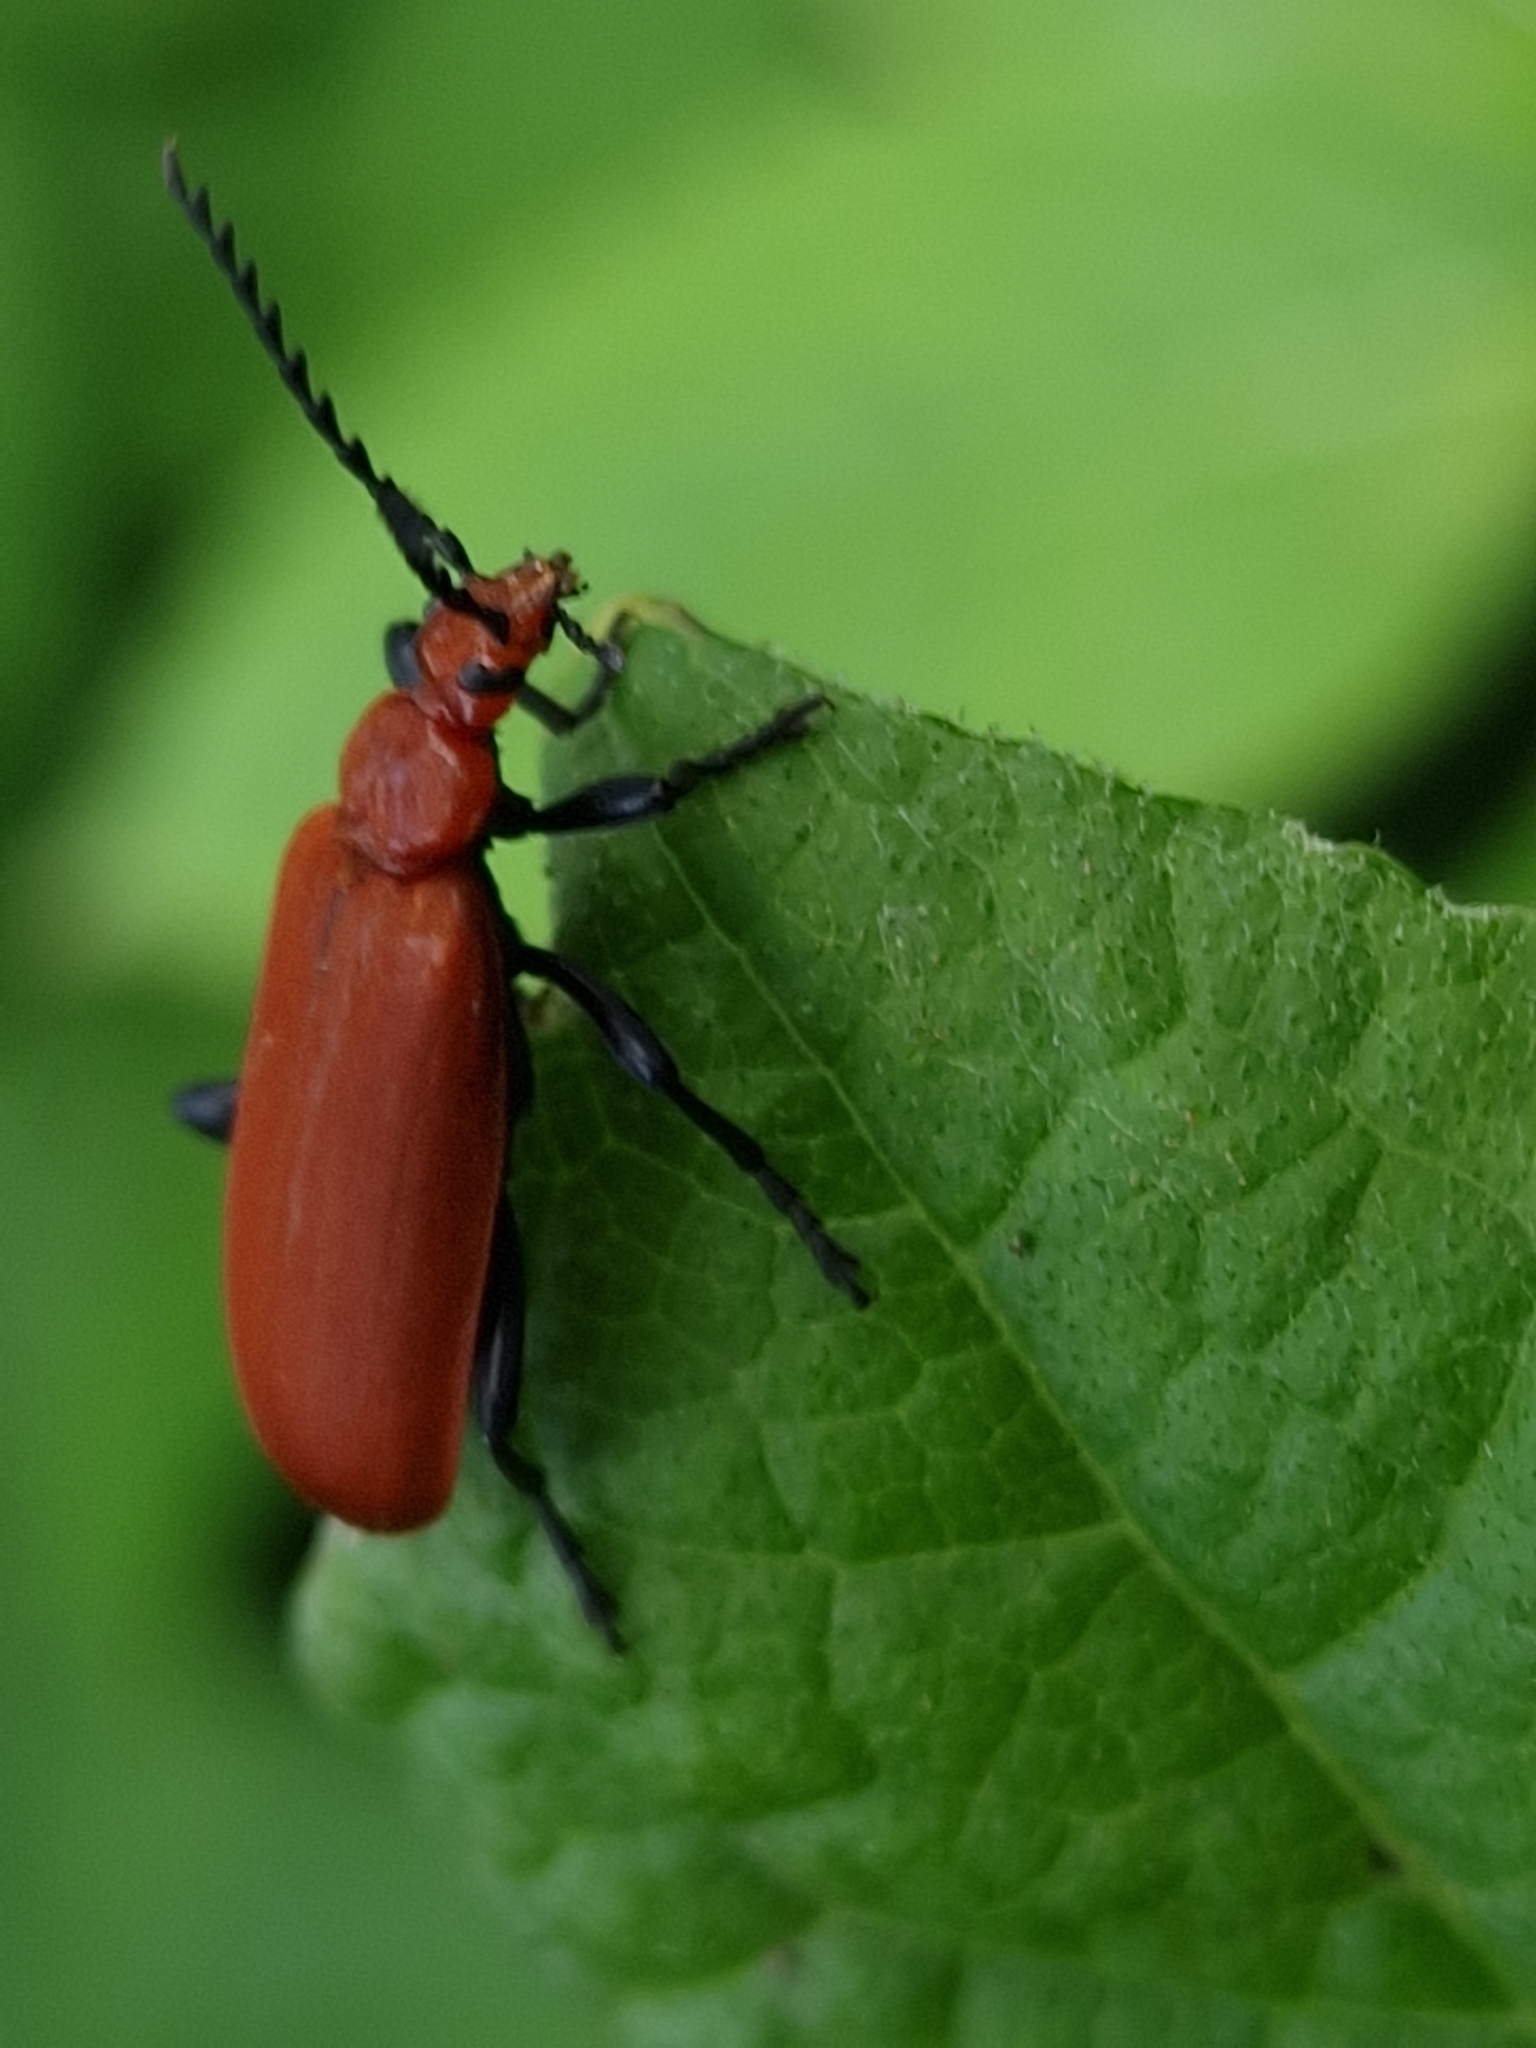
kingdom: Animalia
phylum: Arthropoda
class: Insecta
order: Coleoptera
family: Pyrochroidae
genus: Pyrochroa
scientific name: Pyrochroa serraticornis
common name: Red-headed cardinal beetle
